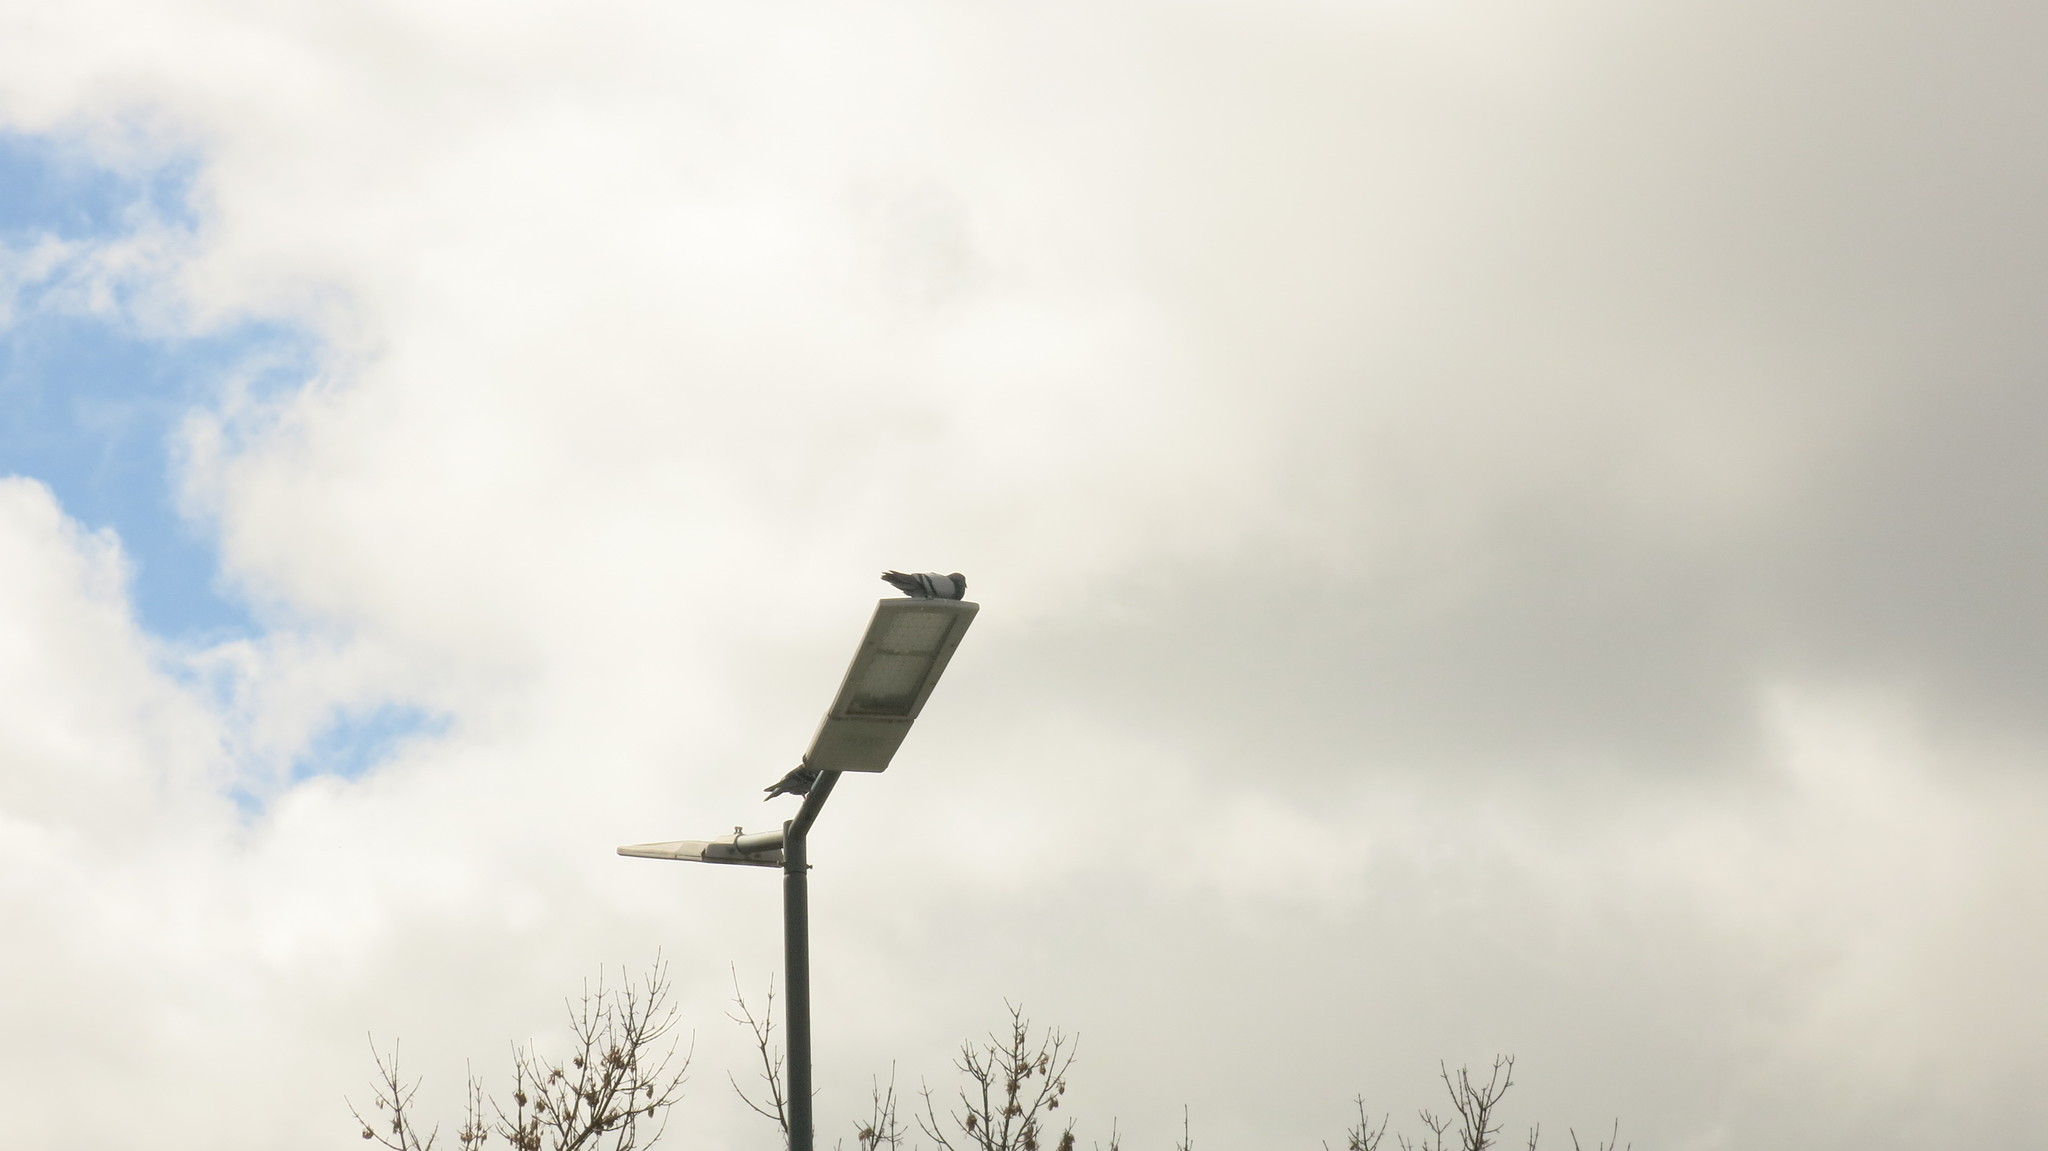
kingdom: Animalia
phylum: Chordata
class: Aves
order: Columbiformes
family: Columbidae
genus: Columba
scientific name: Columba livia
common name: Rock pigeon
